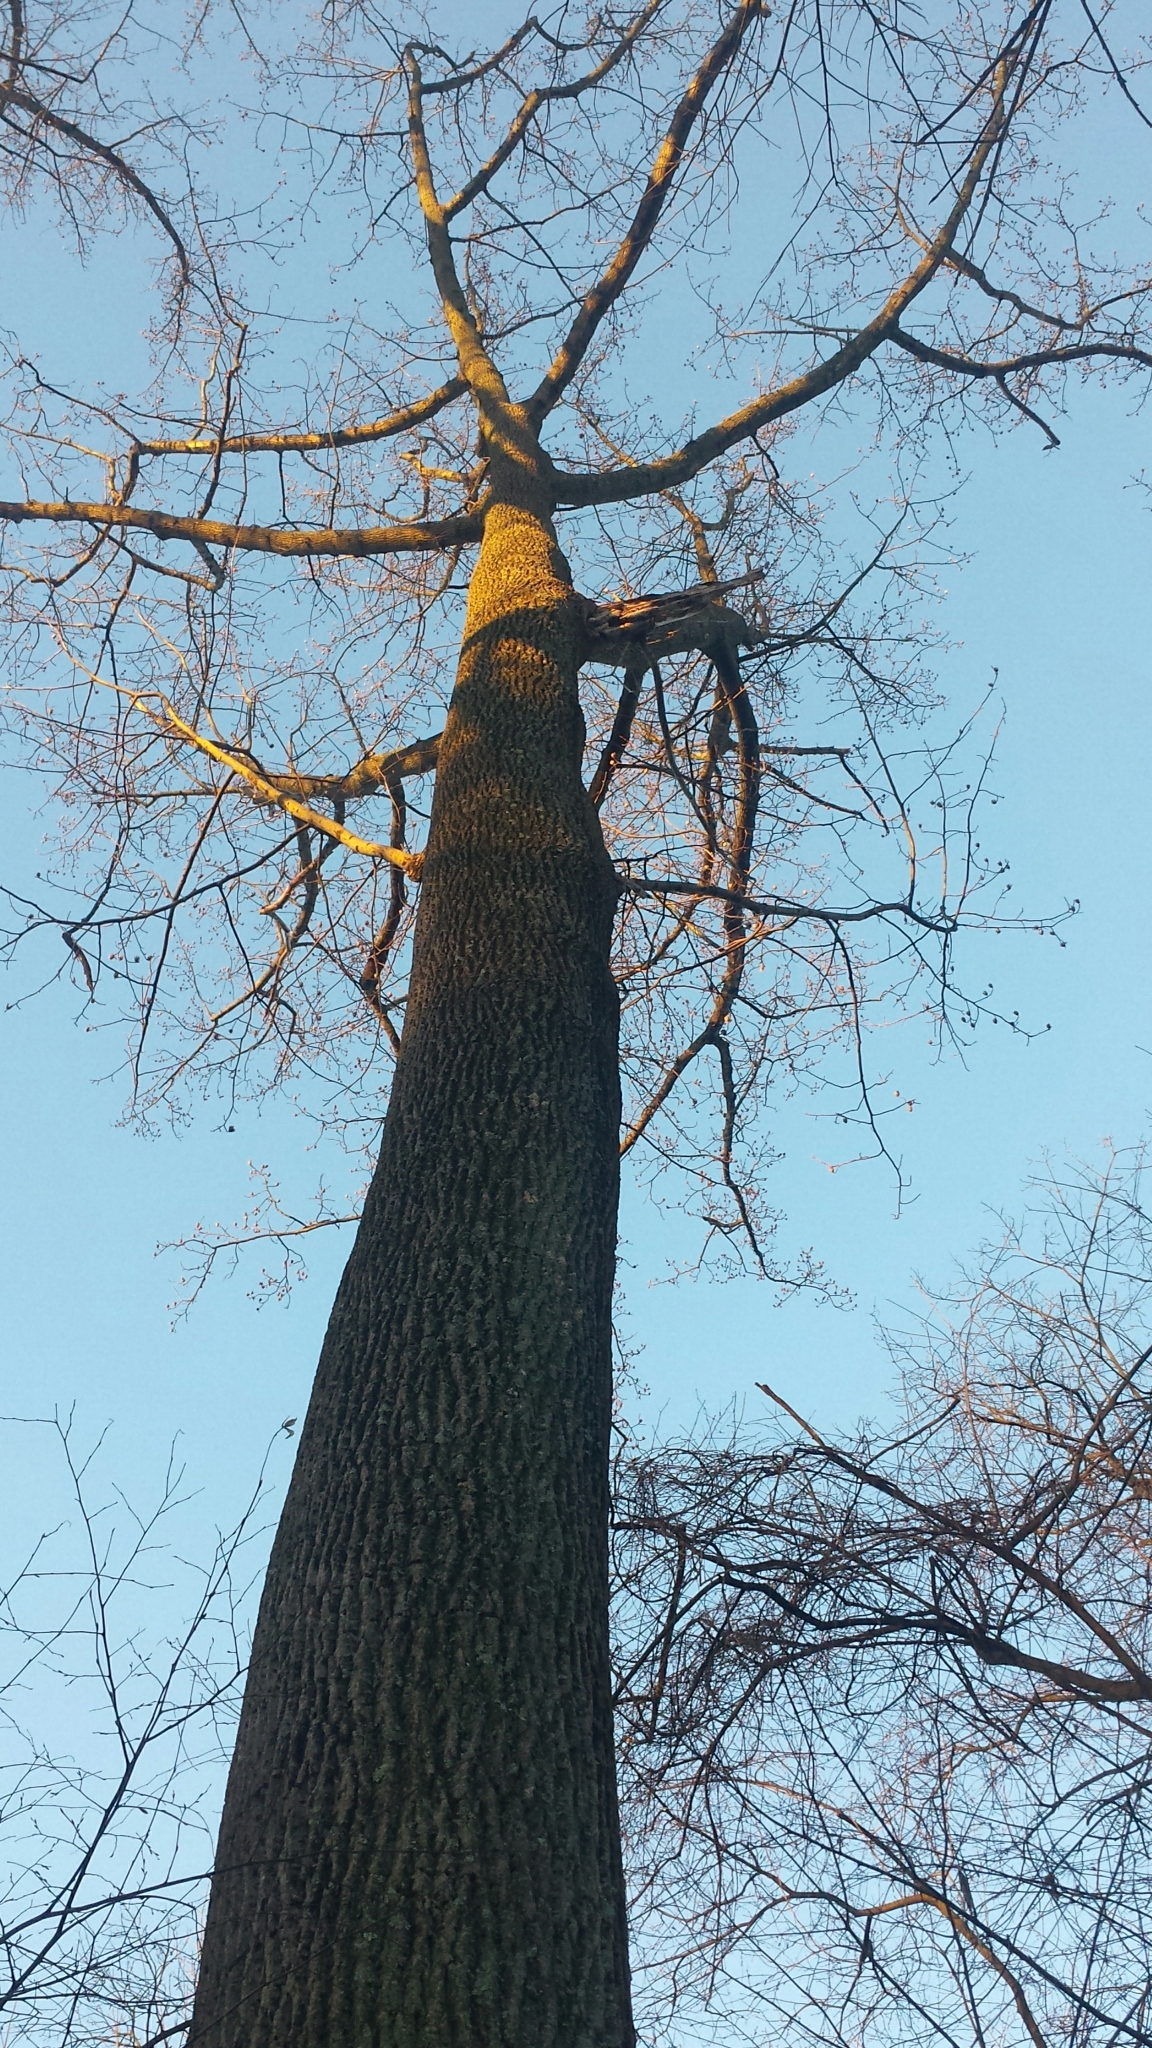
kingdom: Plantae
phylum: Tracheophyta
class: Magnoliopsida
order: Magnoliales
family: Magnoliaceae
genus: Liriodendron
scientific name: Liriodendron tulipifera
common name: Tulip tree
